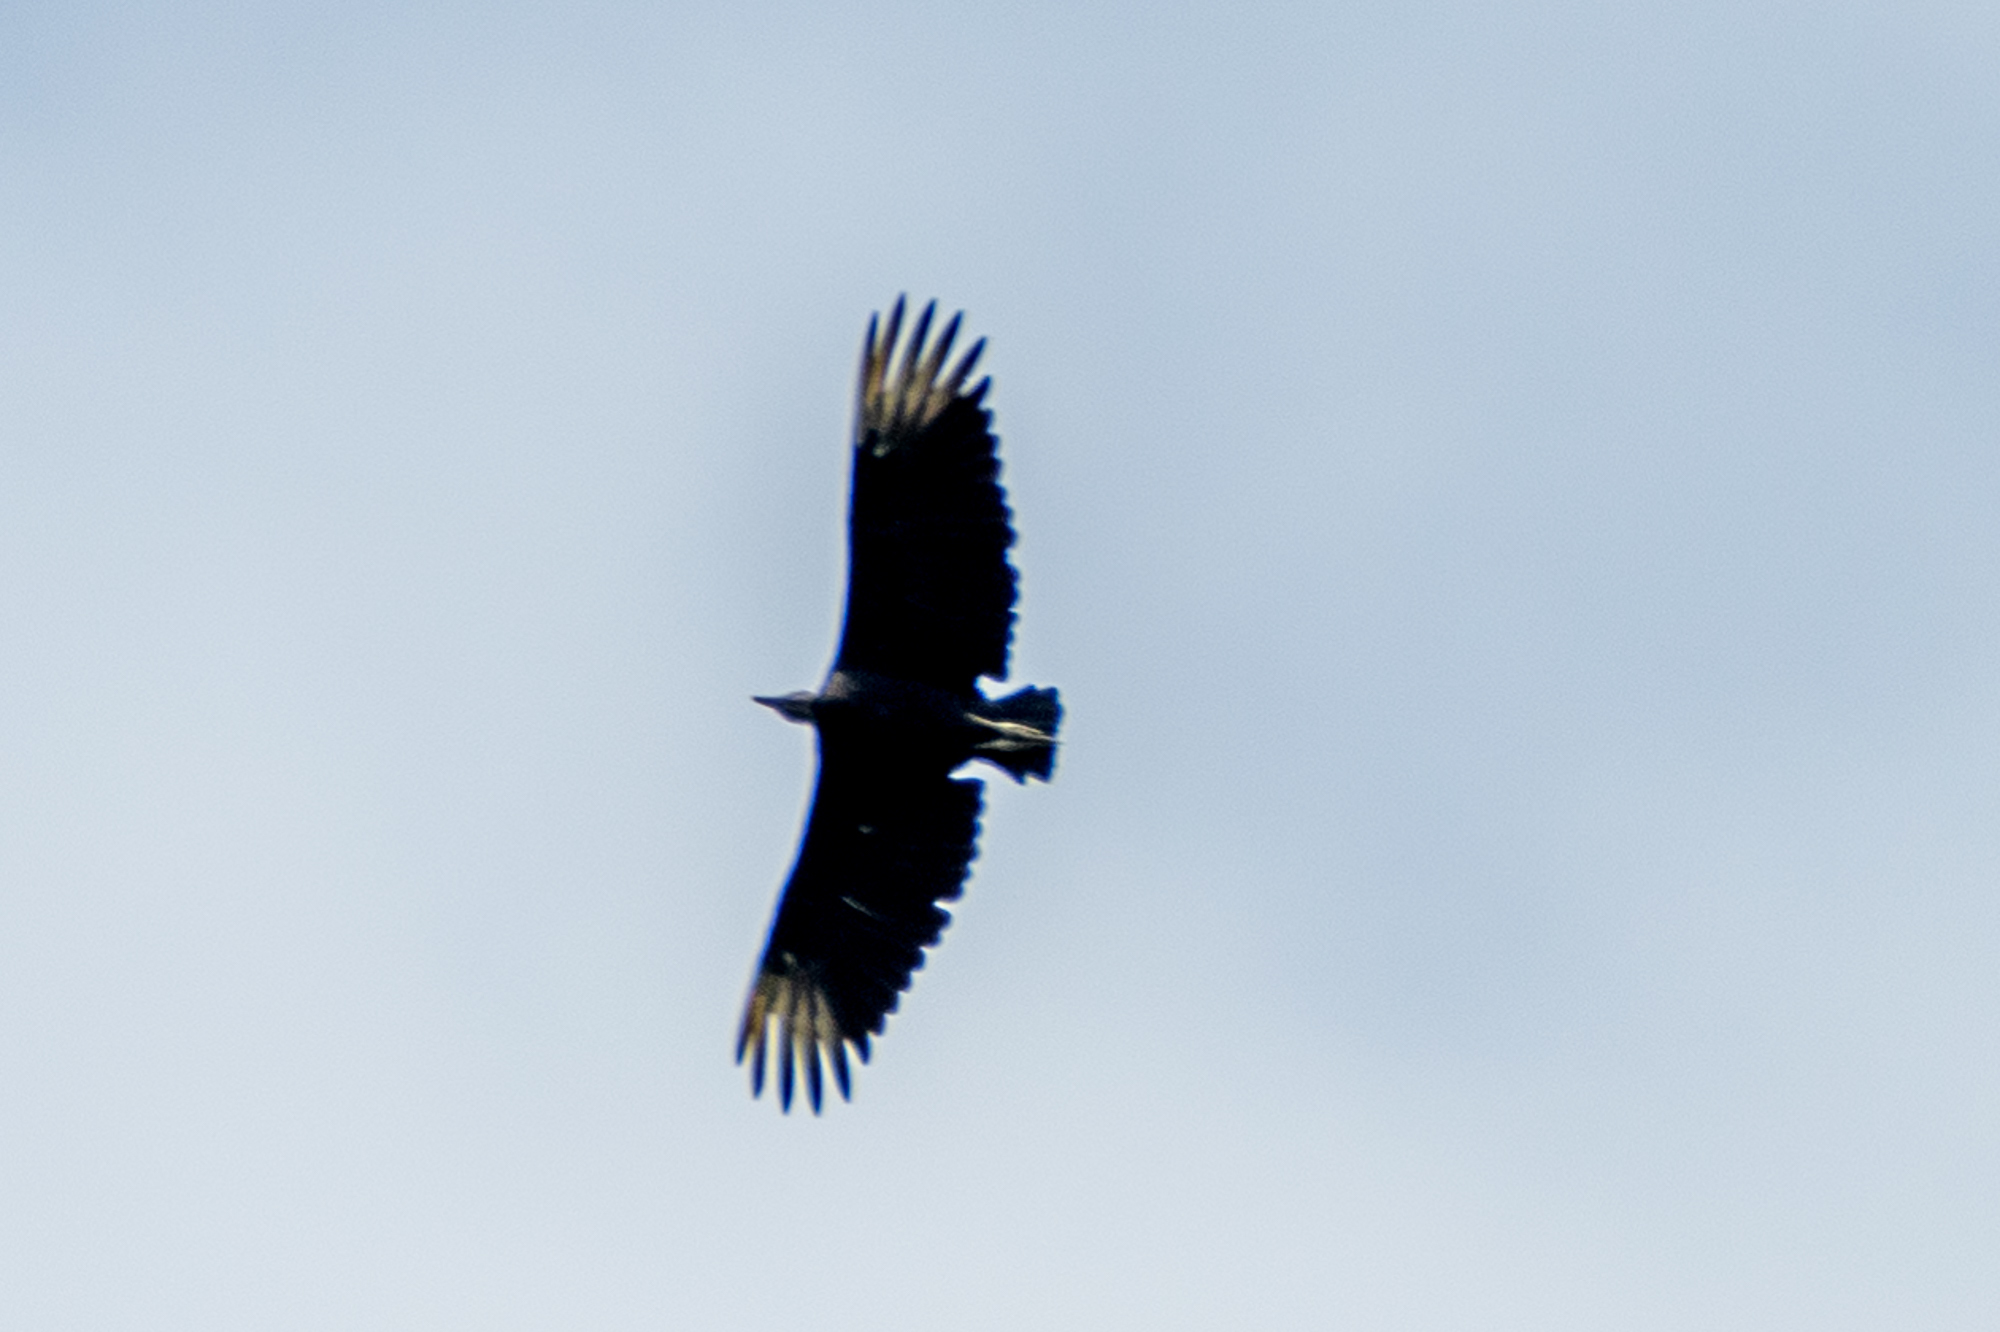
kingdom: Animalia
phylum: Chordata
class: Aves
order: Accipitriformes
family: Cathartidae
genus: Coragyps
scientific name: Coragyps atratus
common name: Black vulture
